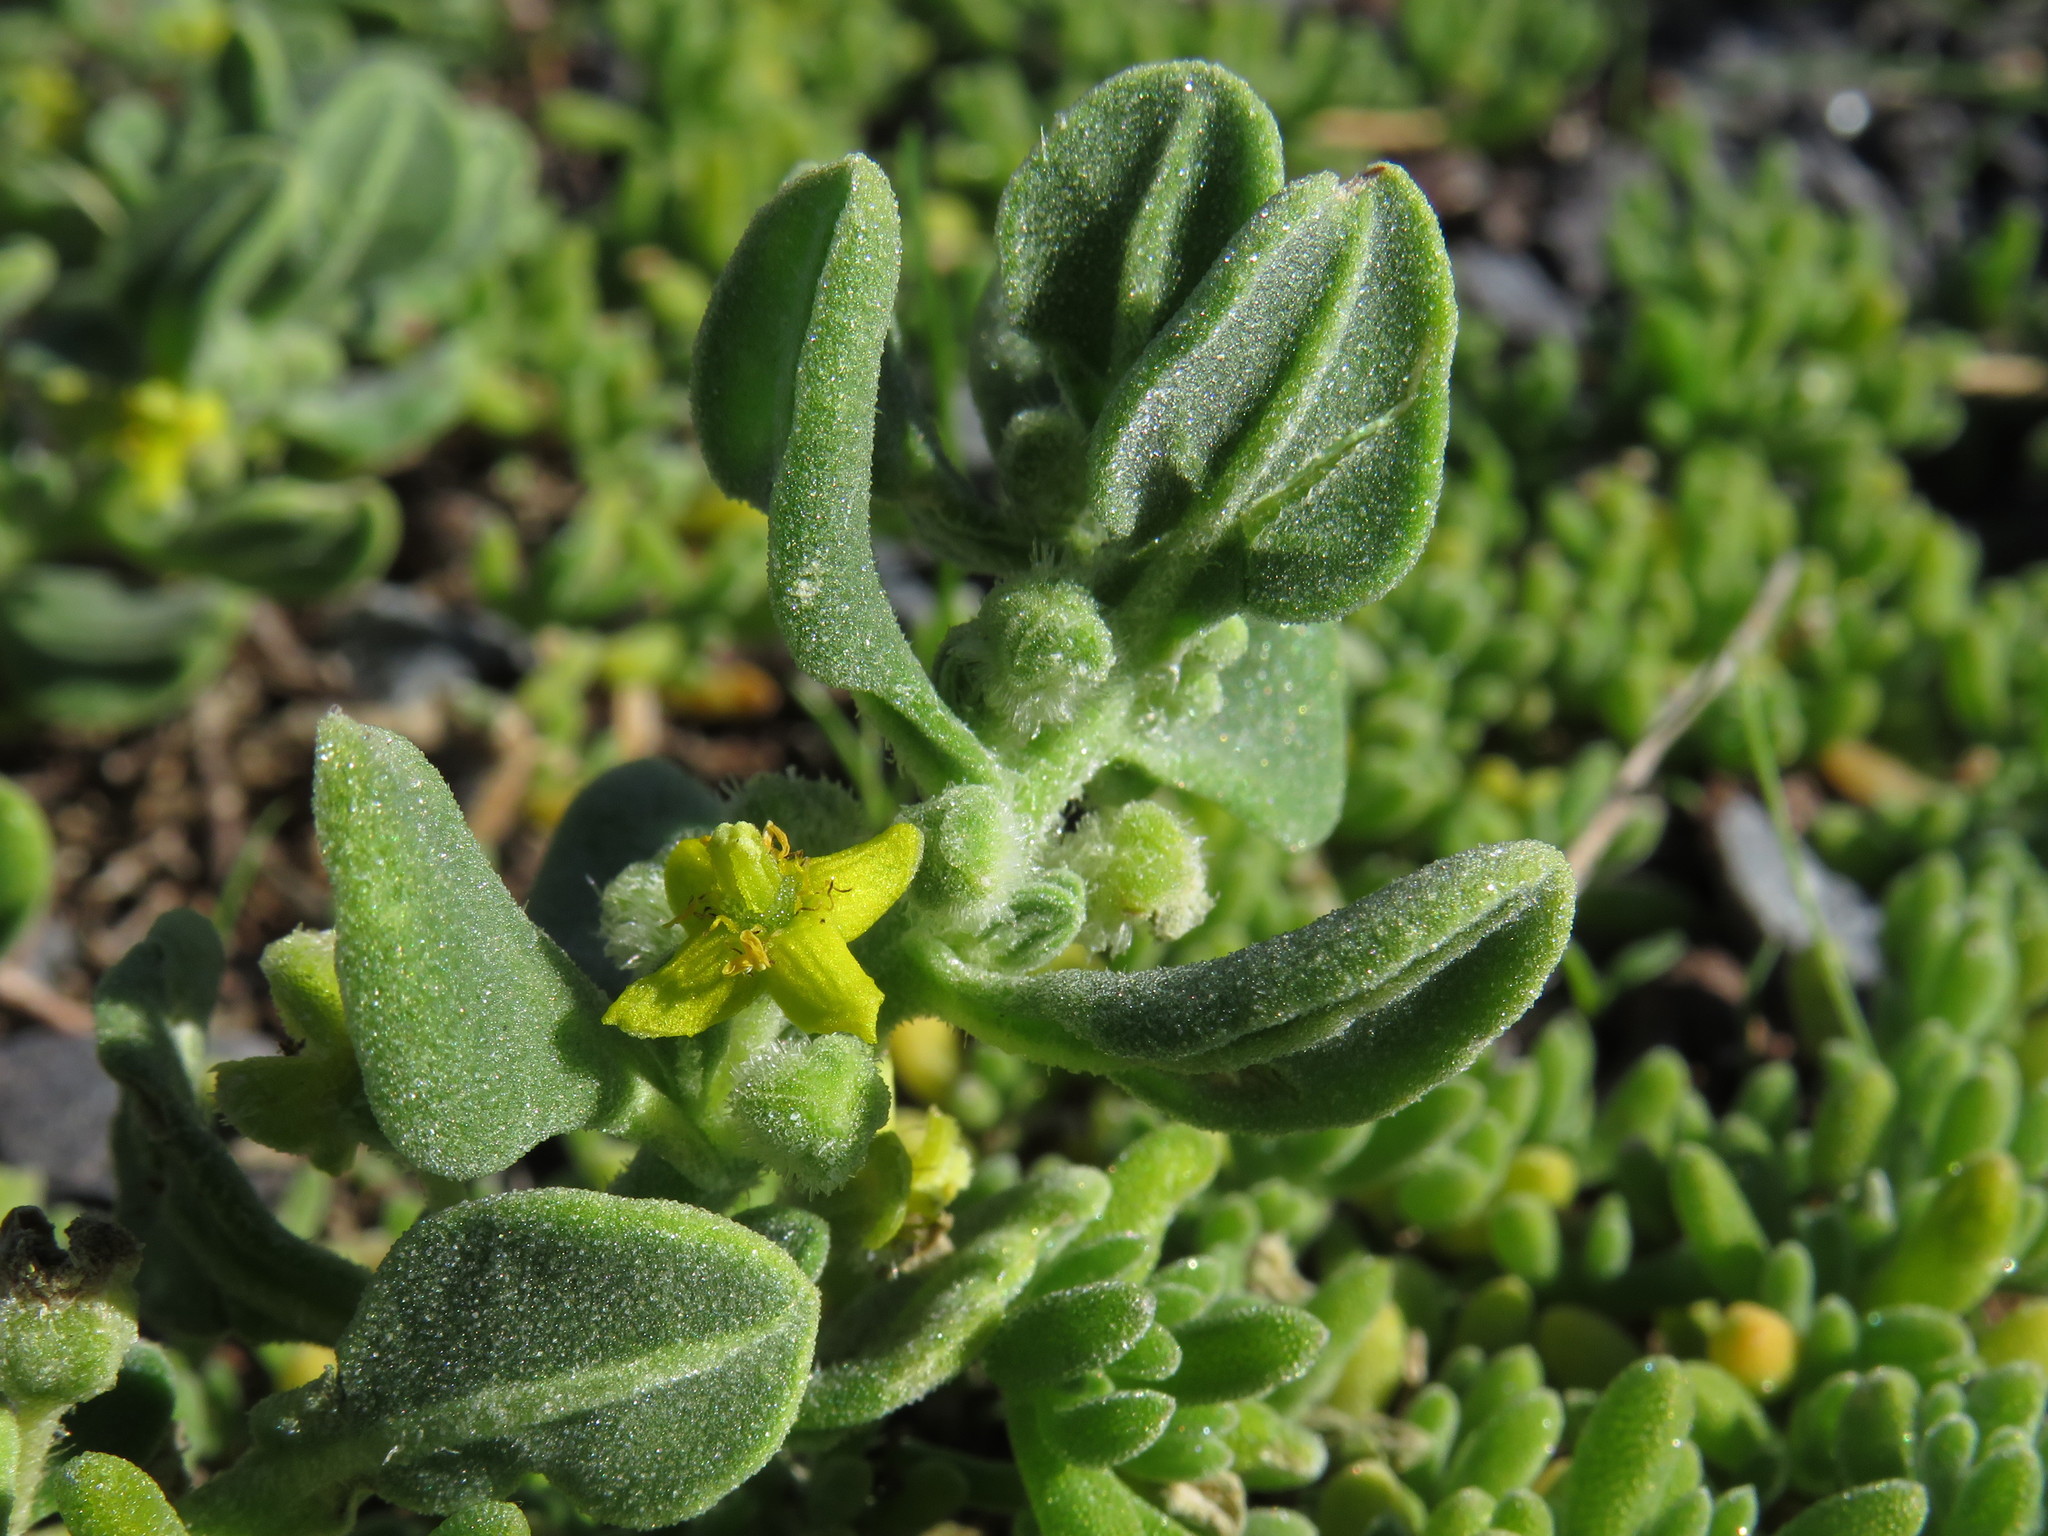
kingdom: Plantae
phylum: Tracheophyta
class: Magnoliopsida
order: Caryophyllales
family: Aizoaceae
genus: Tetragonia
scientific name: Tetragonia decumbens
